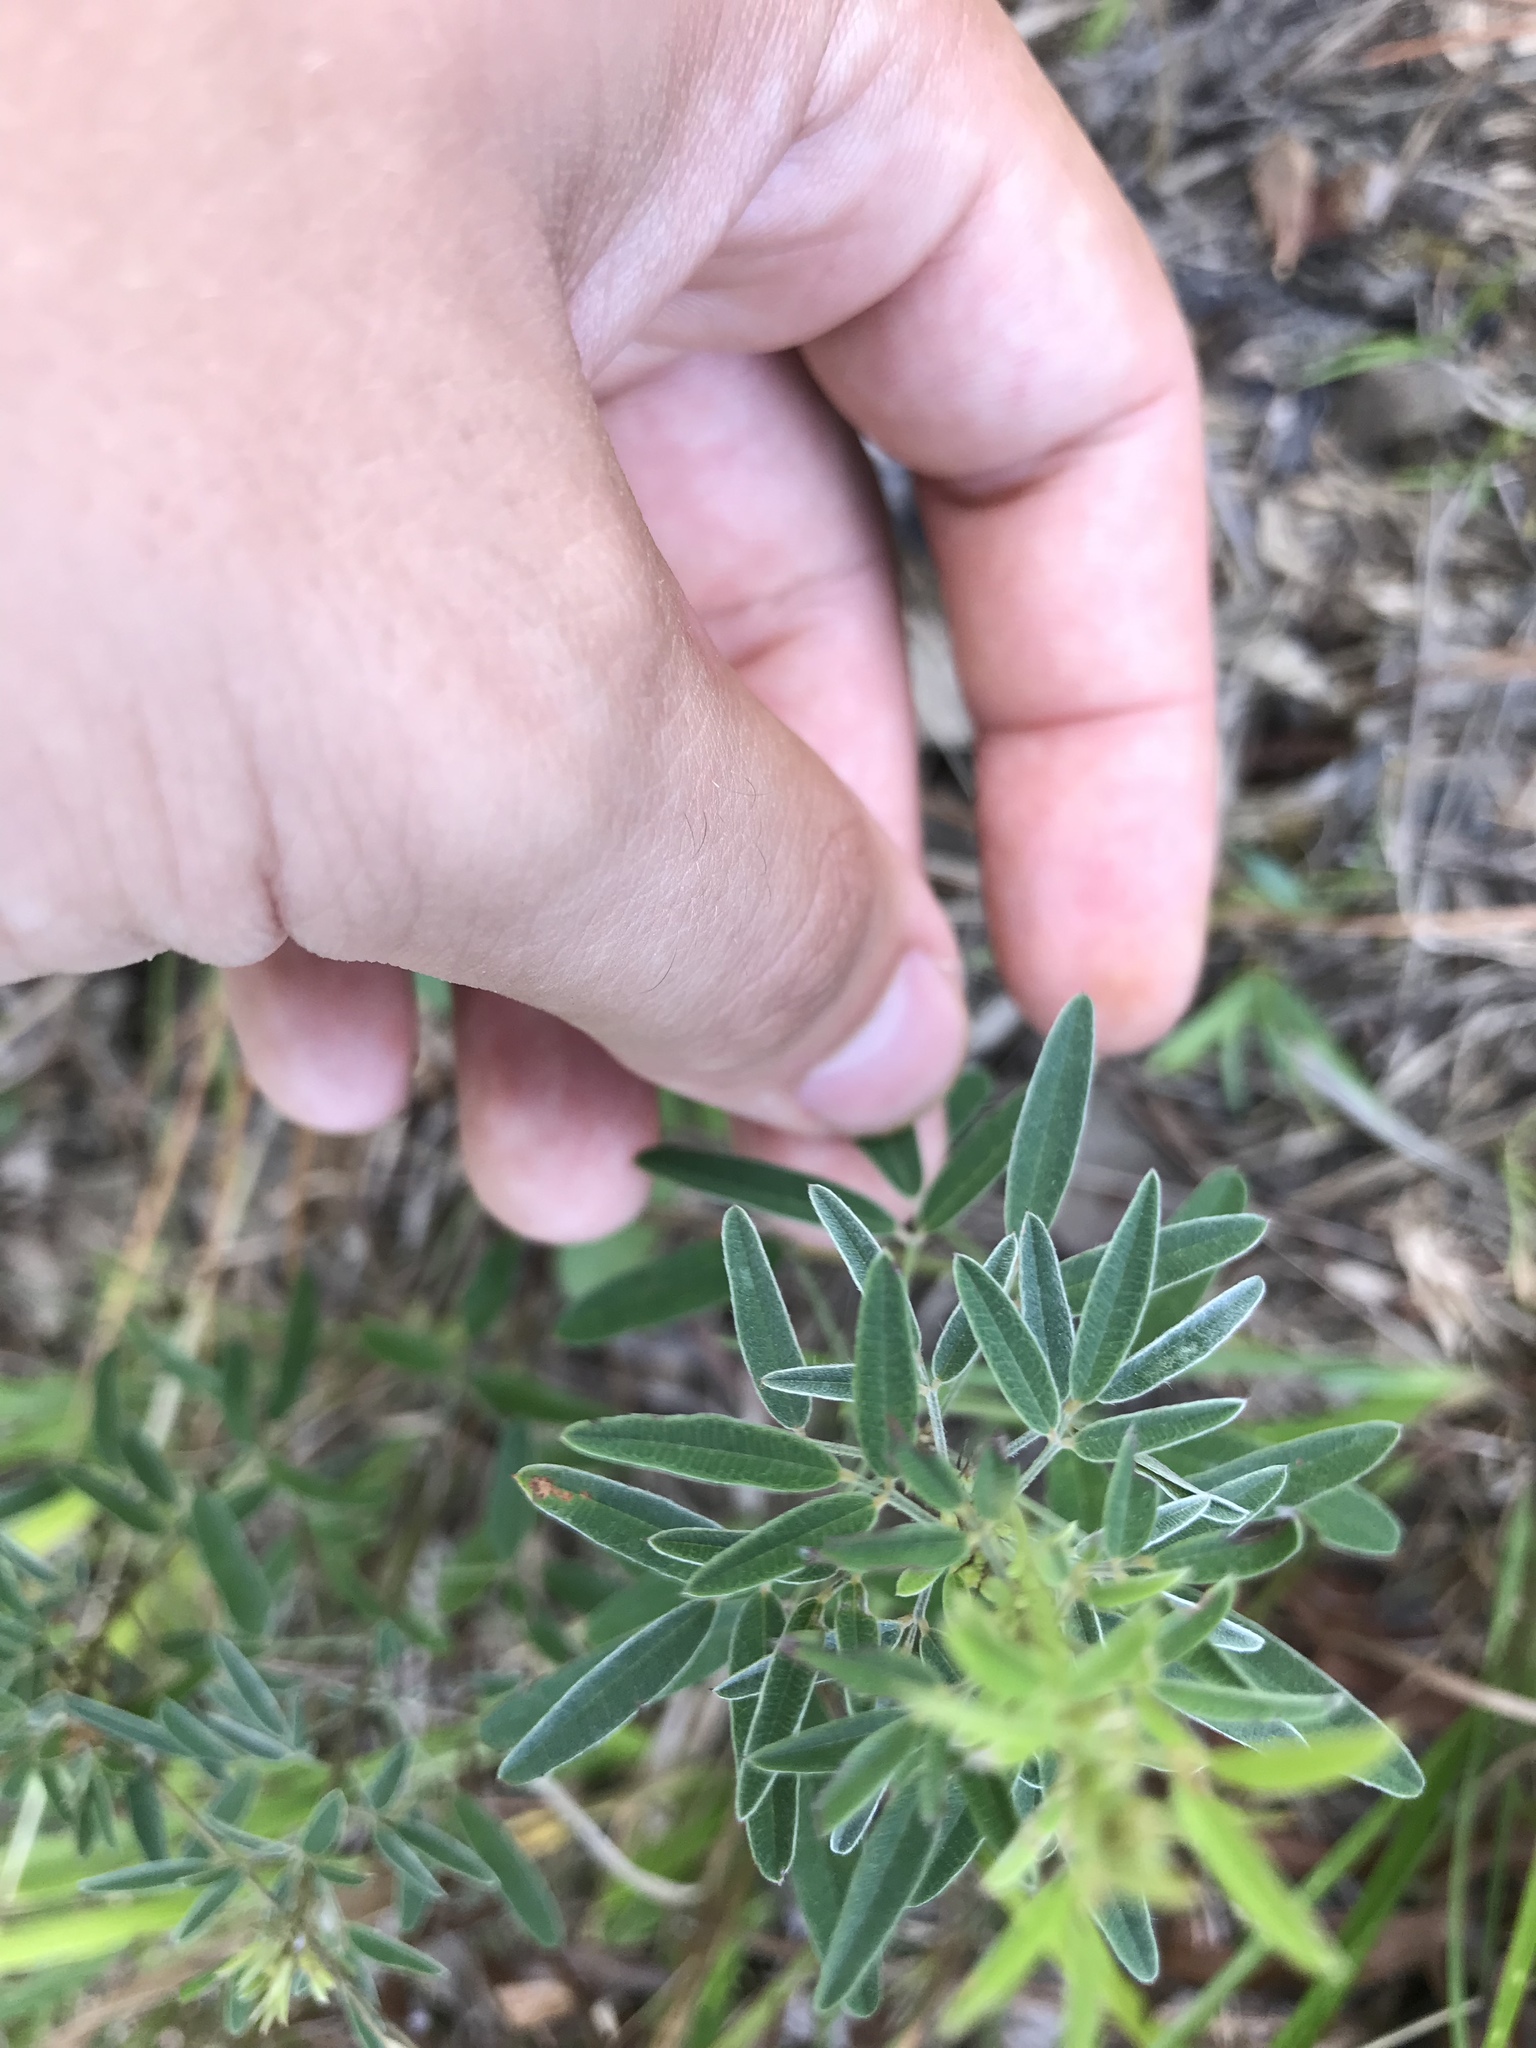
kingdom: Plantae
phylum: Tracheophyta
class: Magnoliopsida
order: Fabales
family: Fabaceae
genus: Lespedeza
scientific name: Lespedeza virginica
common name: Slender bush-clover
